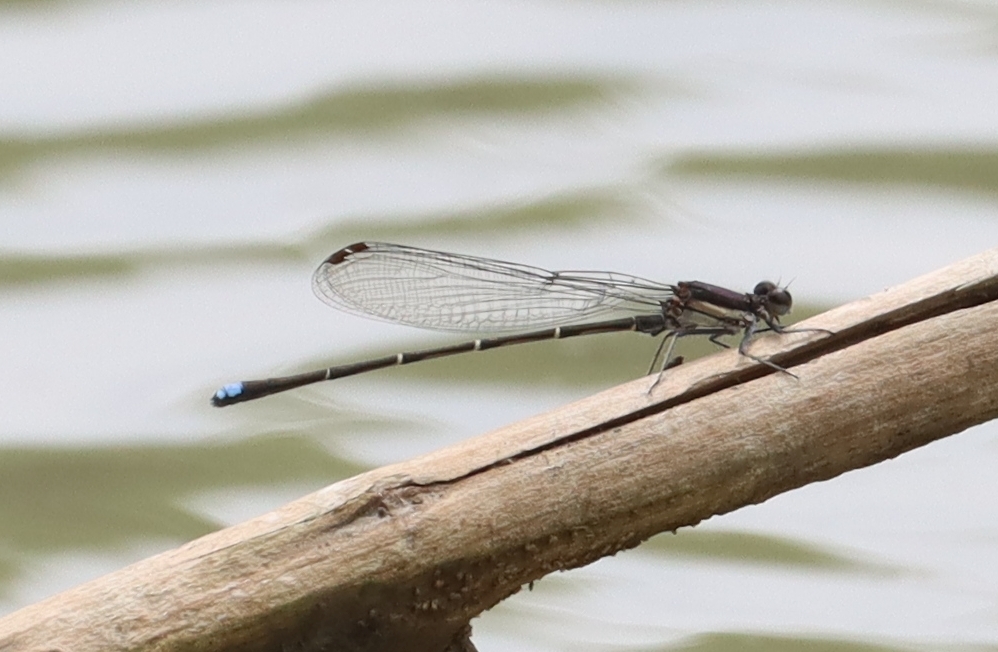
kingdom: Animalia
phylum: Arthropoda
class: Insecta
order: Odonata
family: Coenagrionidae
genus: Argia
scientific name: Argia tibialis
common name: Blue-tipped dancer
